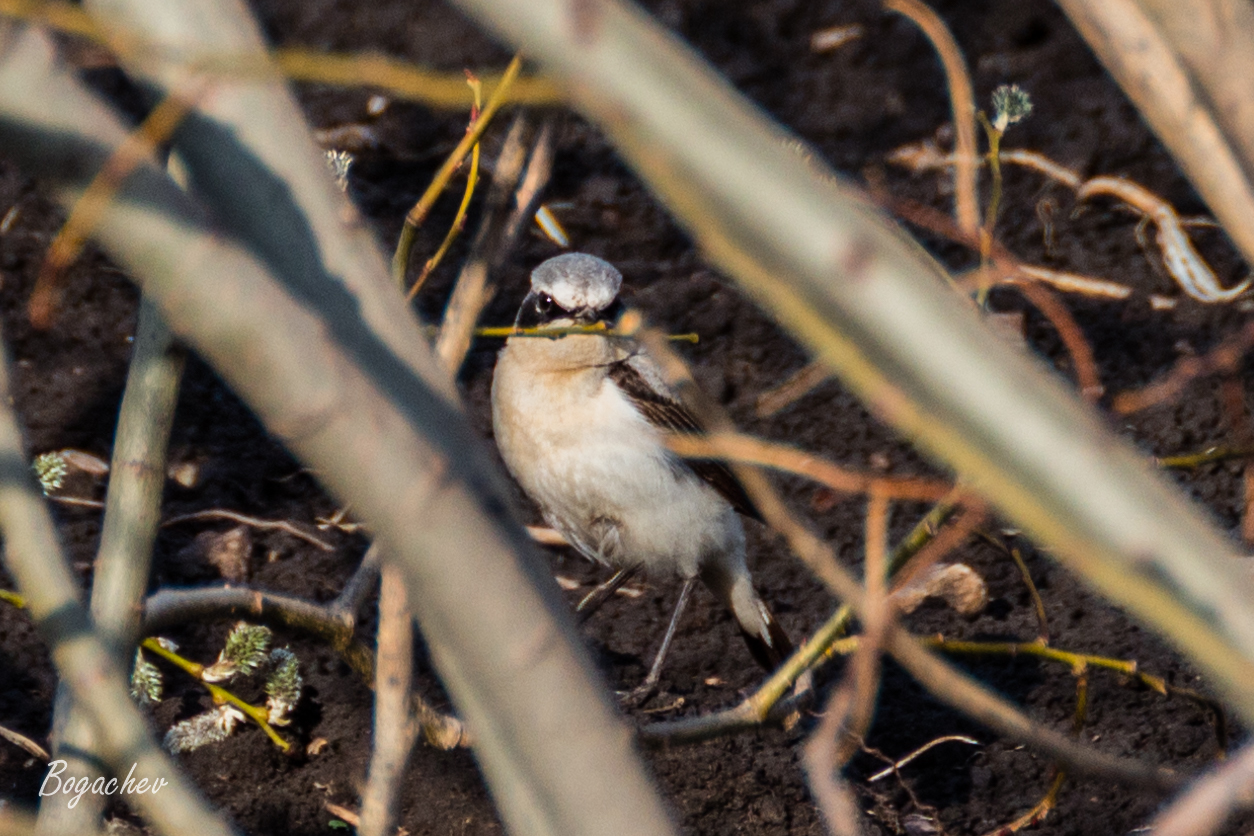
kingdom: Animalia
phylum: Chordata
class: Aves
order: Passeriformes
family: Muscicapidae
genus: Oenanthe
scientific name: Oenanthe oenanthe
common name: Northern wheatear
